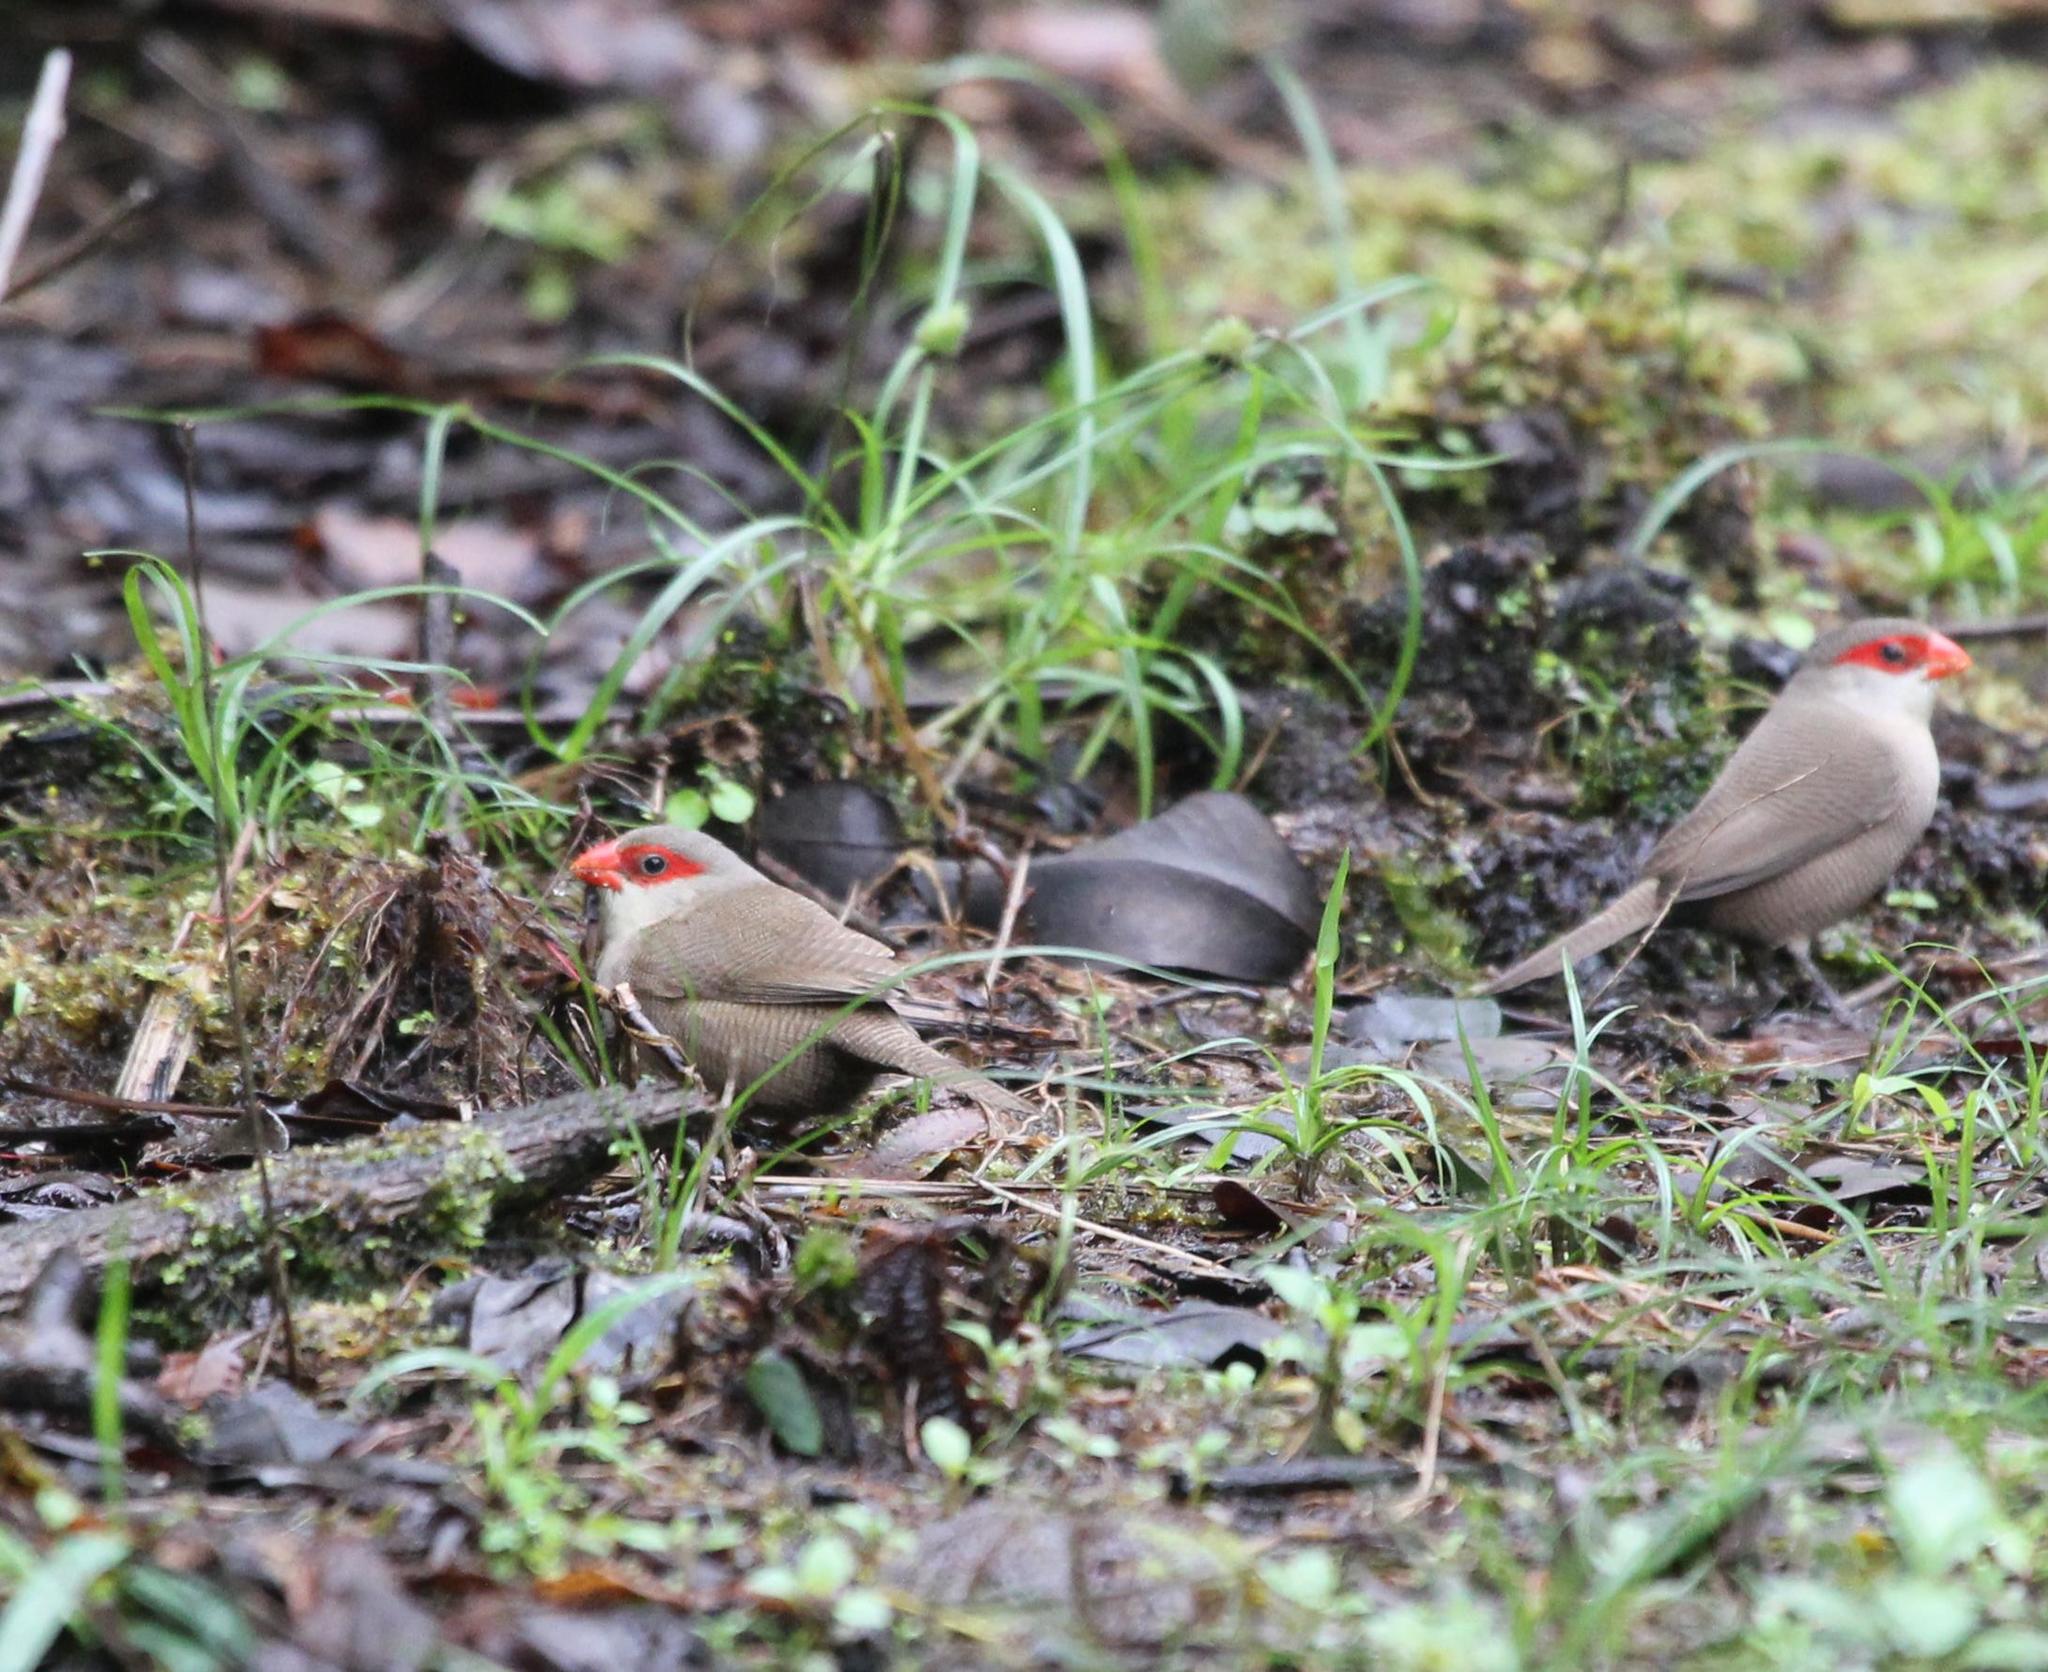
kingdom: Animalia
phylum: Chordata
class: Aves
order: Passeriformes
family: Estrildidae
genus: Estrilda
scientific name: Estrilda astrild
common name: Common waxbill
